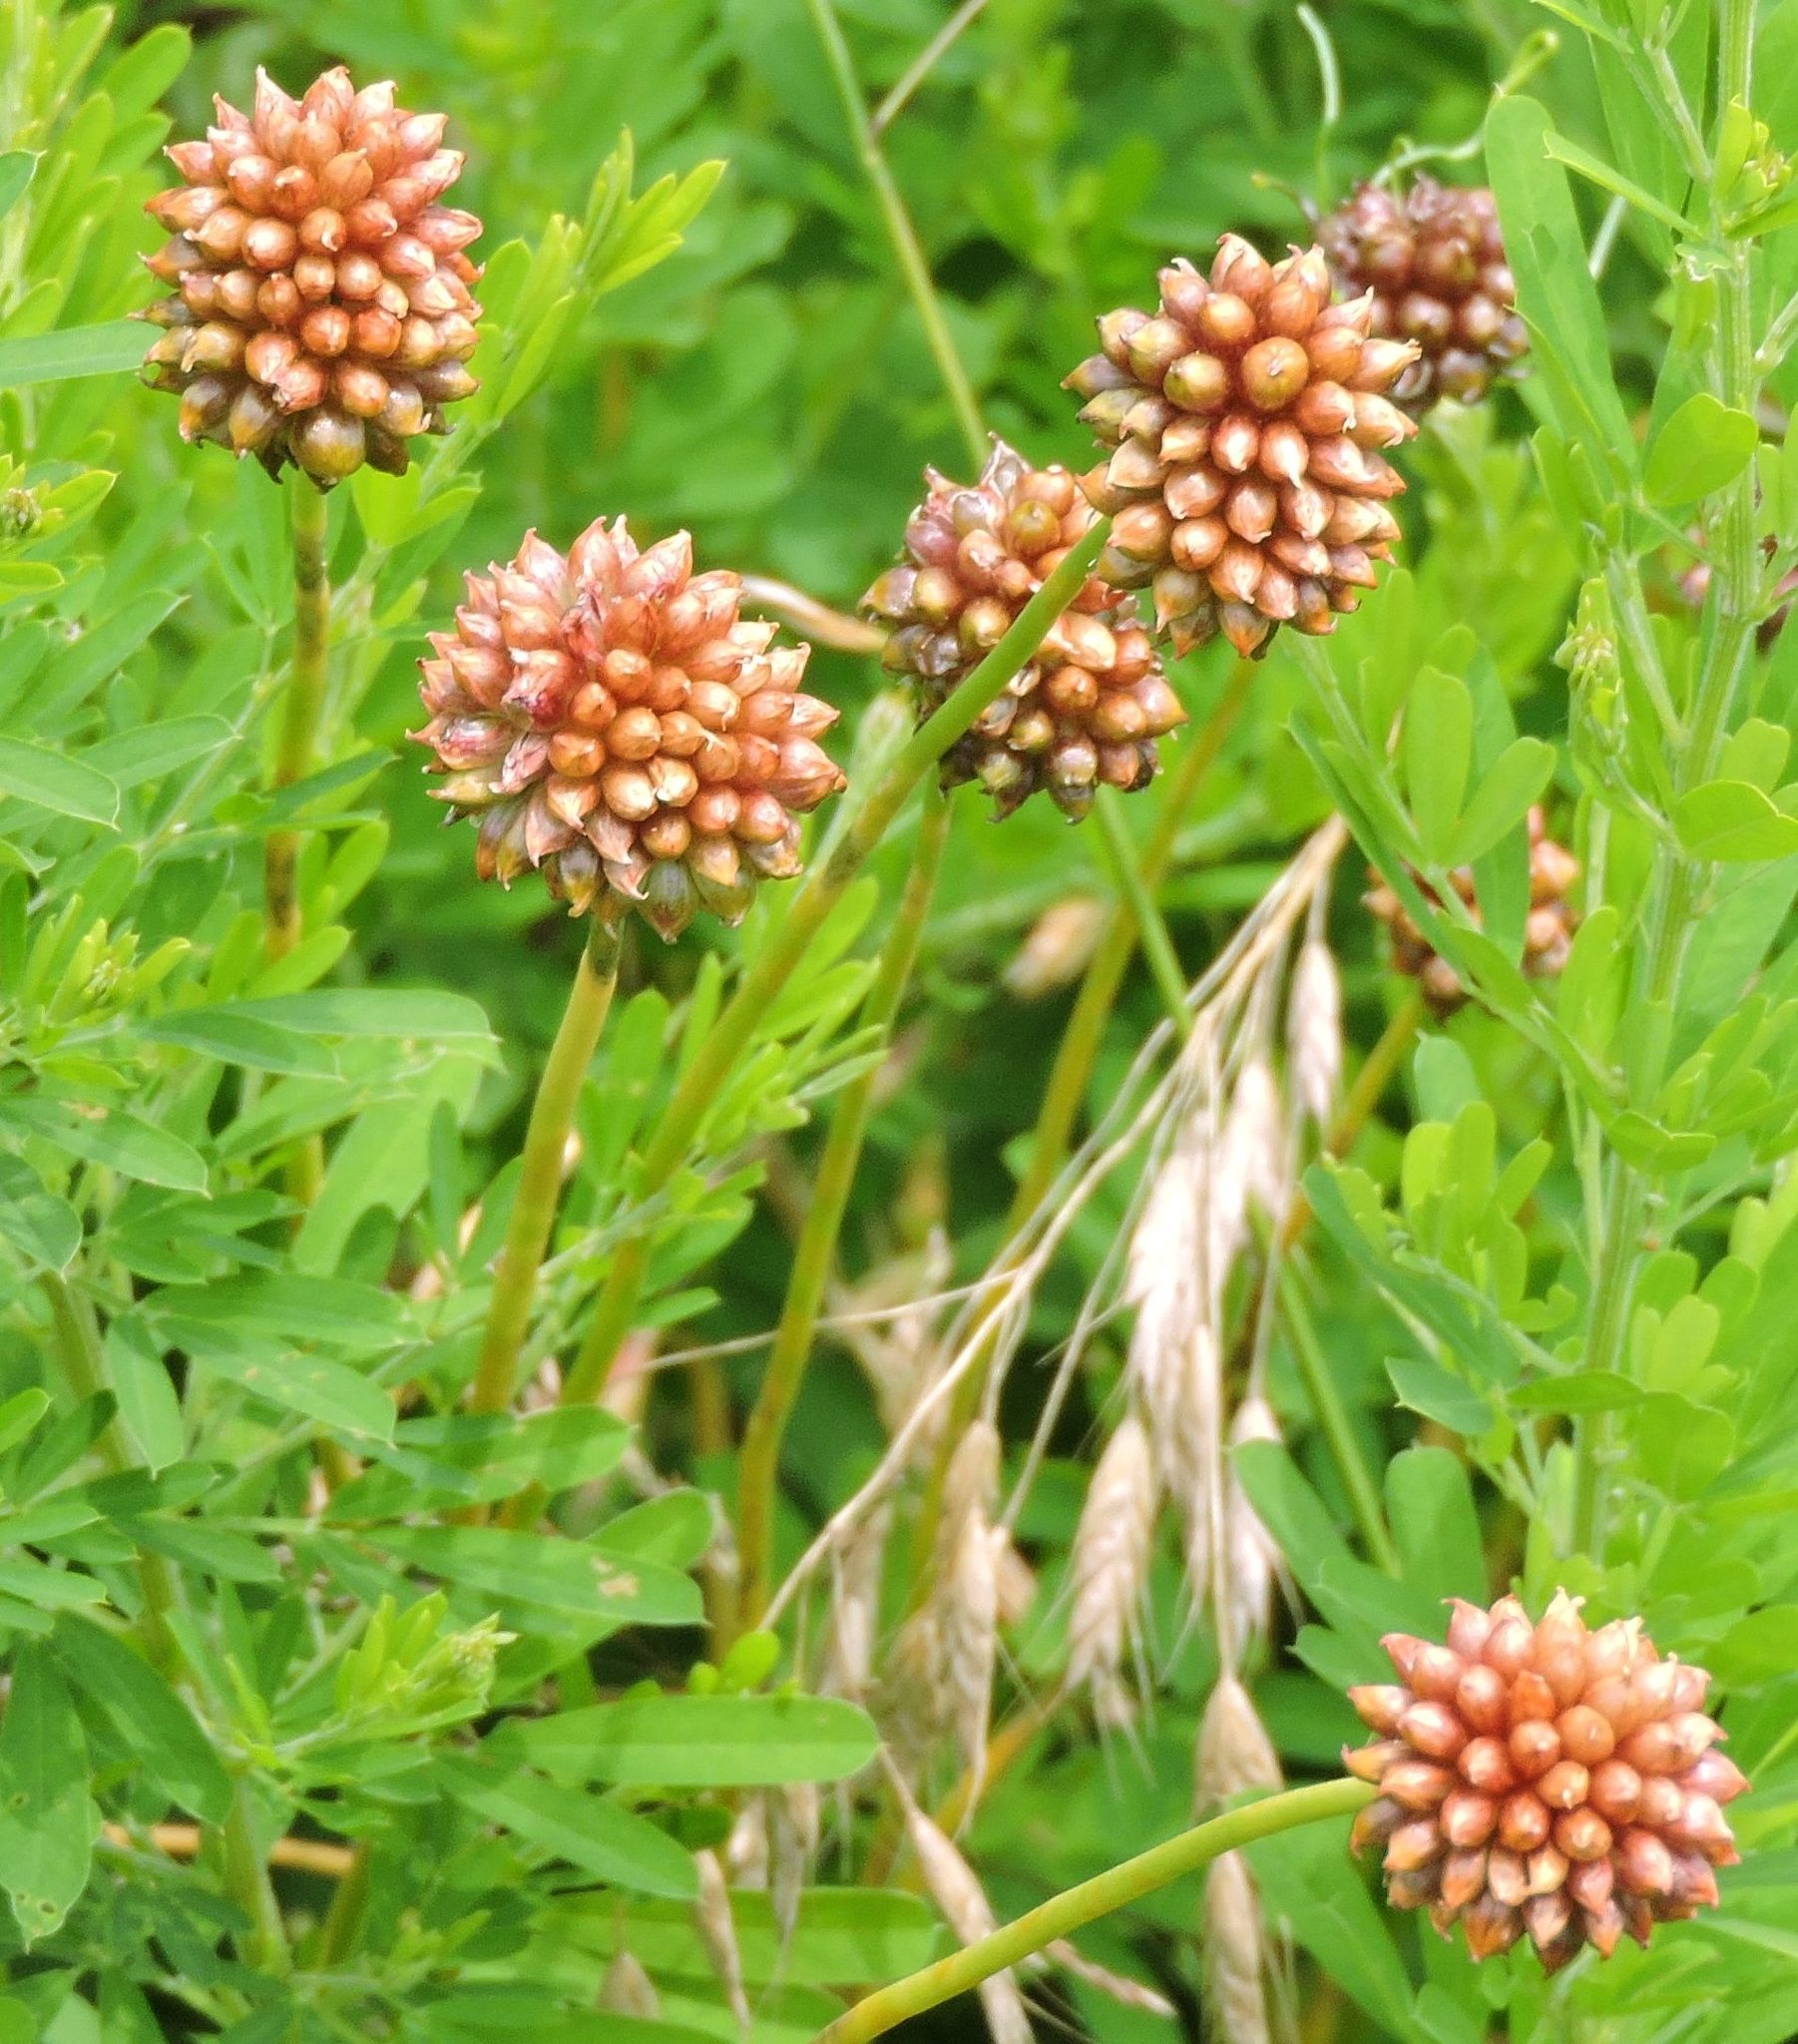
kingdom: Plantae
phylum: Tracheophyta
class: Liliopsida
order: Asparagales
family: Amaryllidaceae
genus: Allium
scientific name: Allium vineale
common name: Crow garlic
